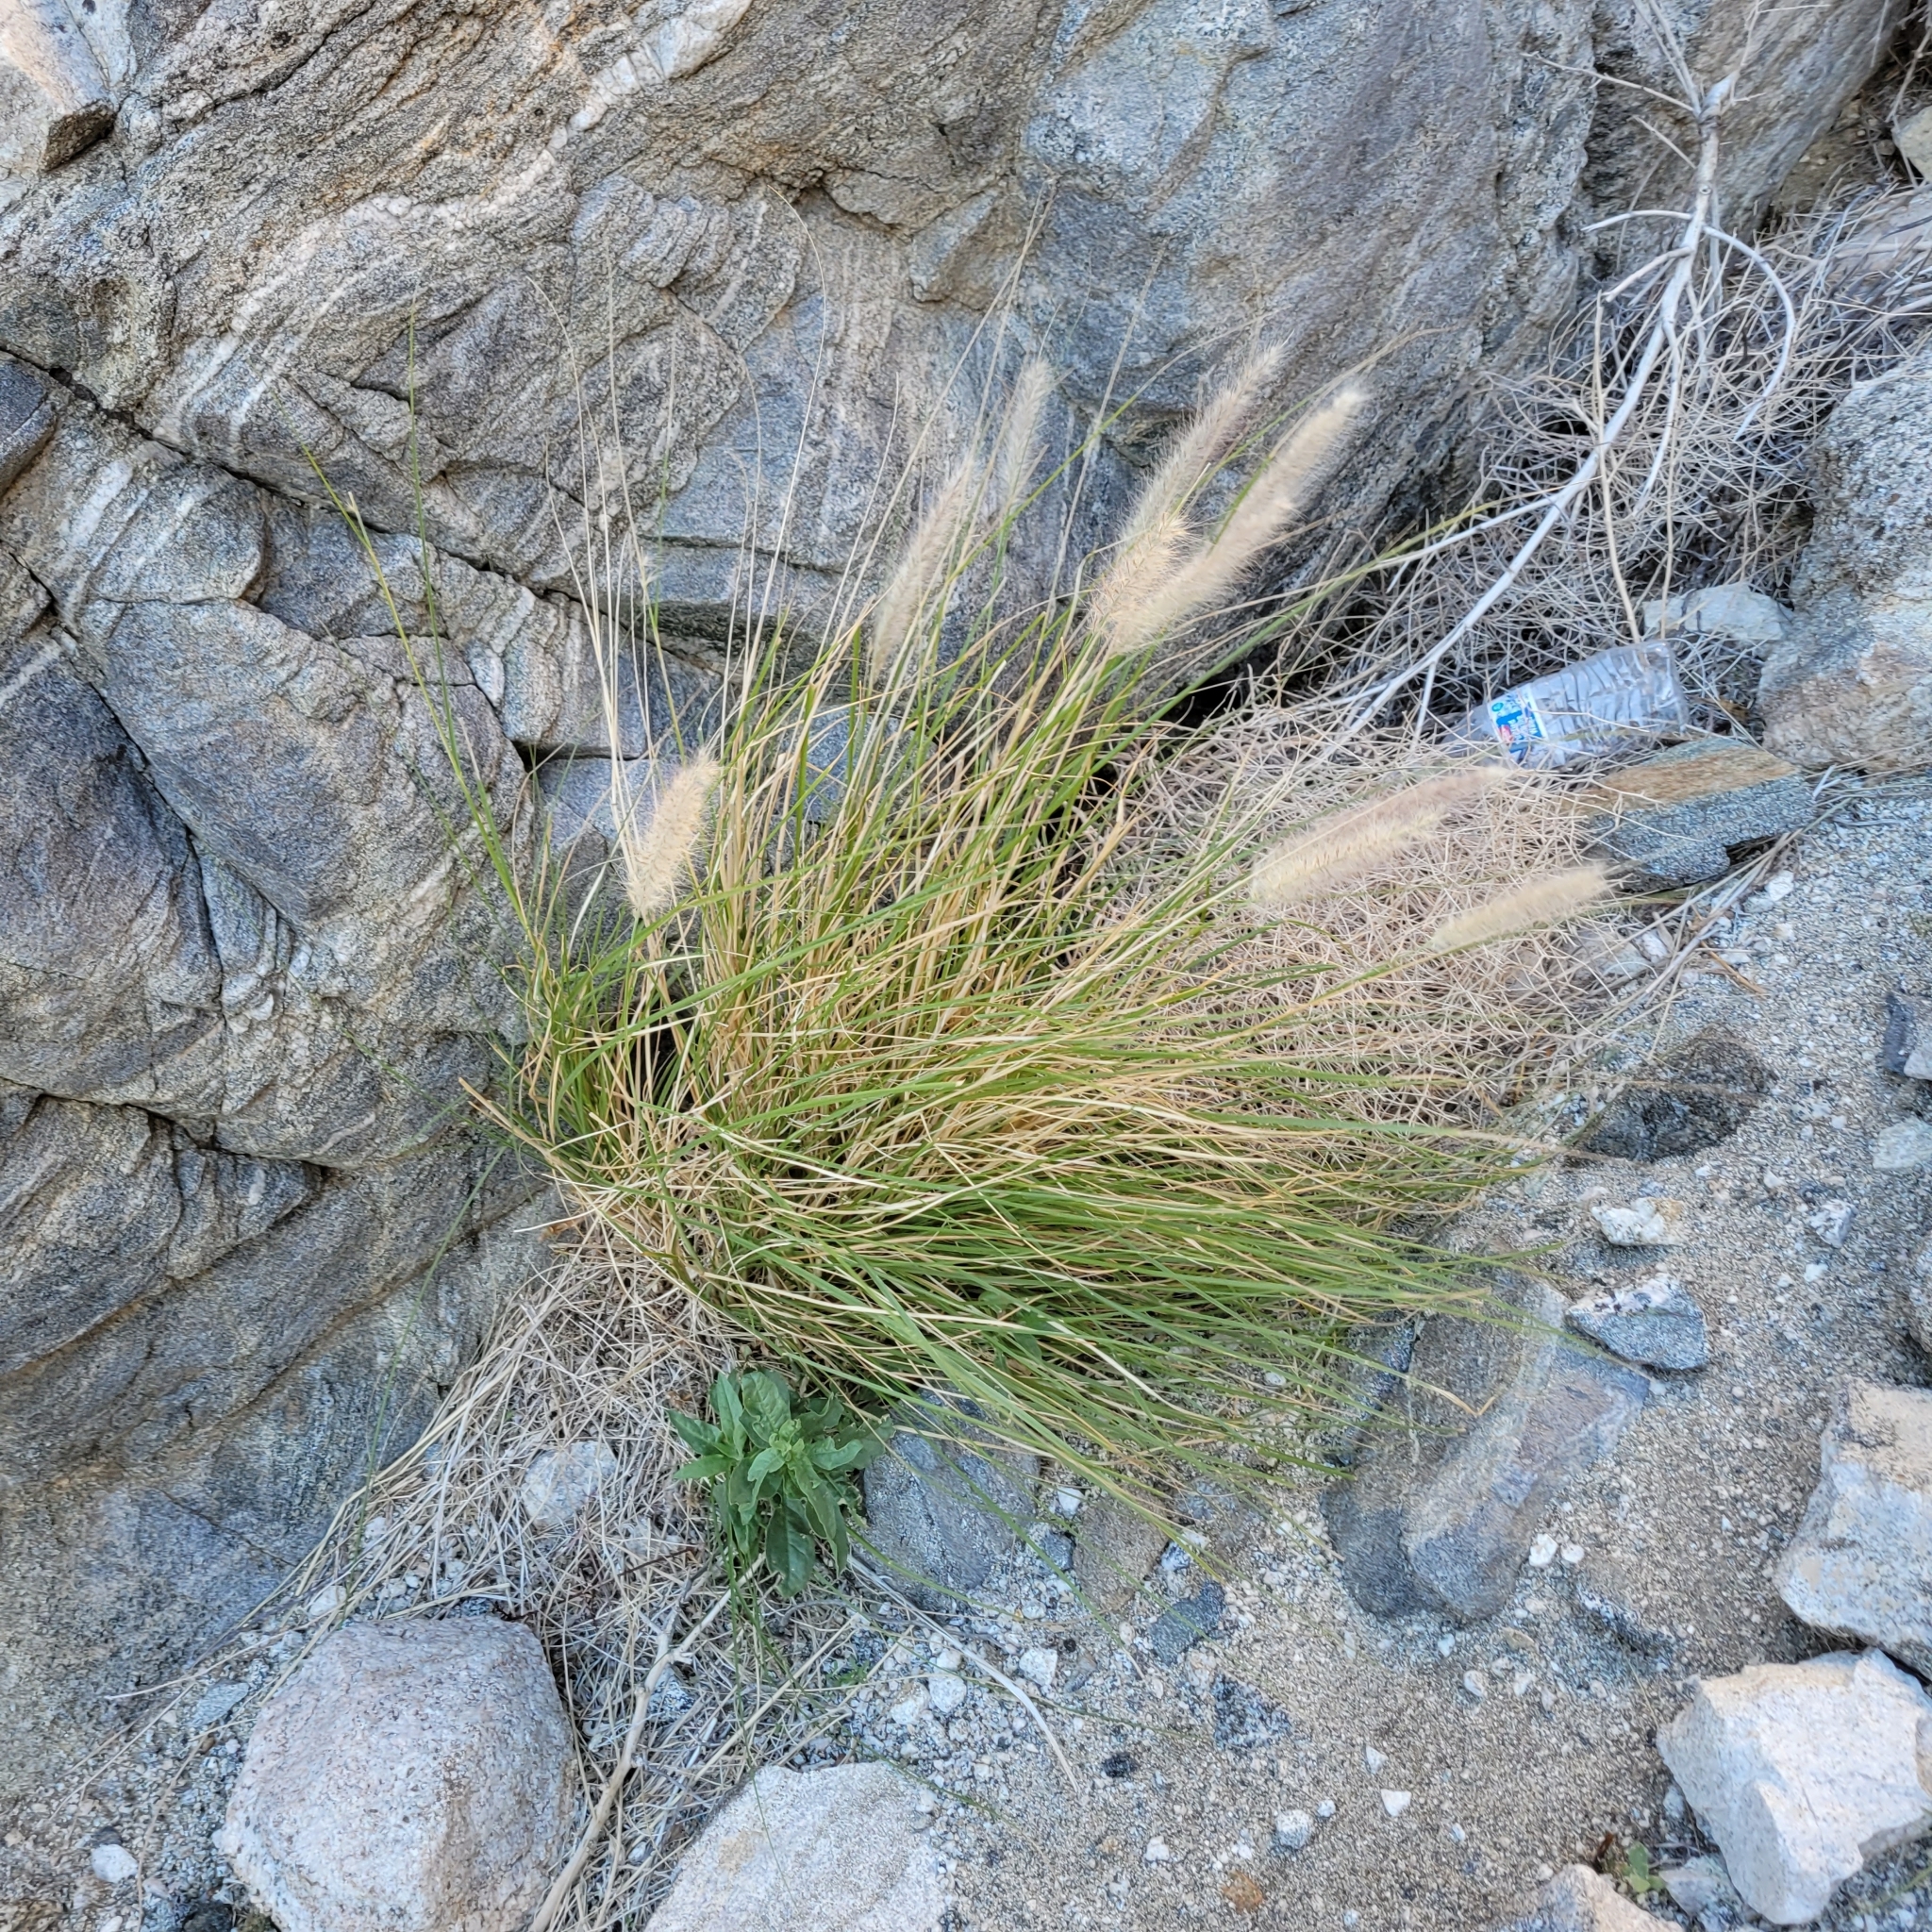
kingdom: Plantae
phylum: Tracheophyta
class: Liliopsida
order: Poales
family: Poaceae
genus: Cenchrus
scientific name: Cenchrus setaceus
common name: Crimson fountaingrass
